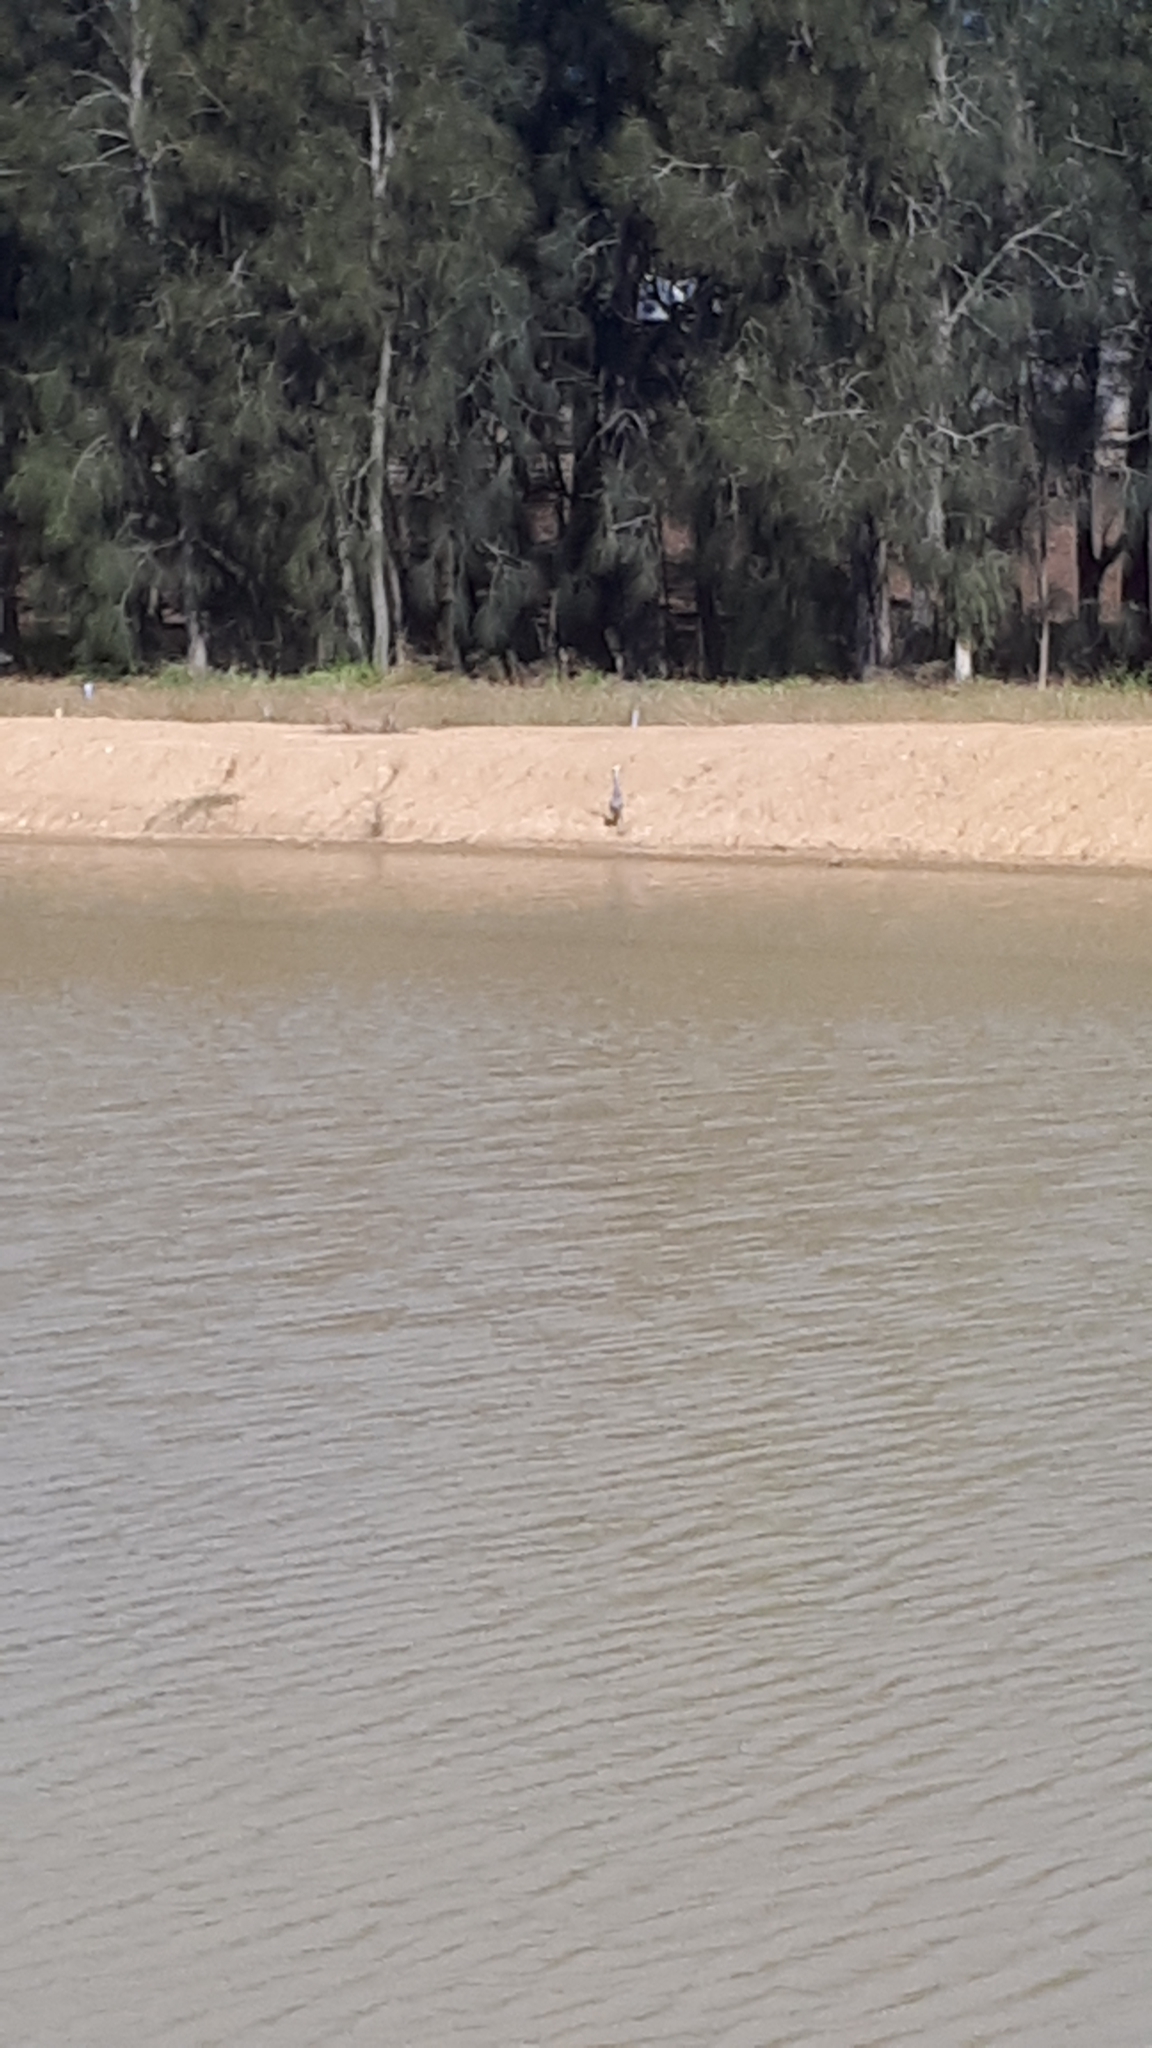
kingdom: Animalia
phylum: Chordata
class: Aves
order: Pelecaniformes
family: Ardeidae
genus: Egretta
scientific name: Egretta novaehollandiae
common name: White-faced heron
